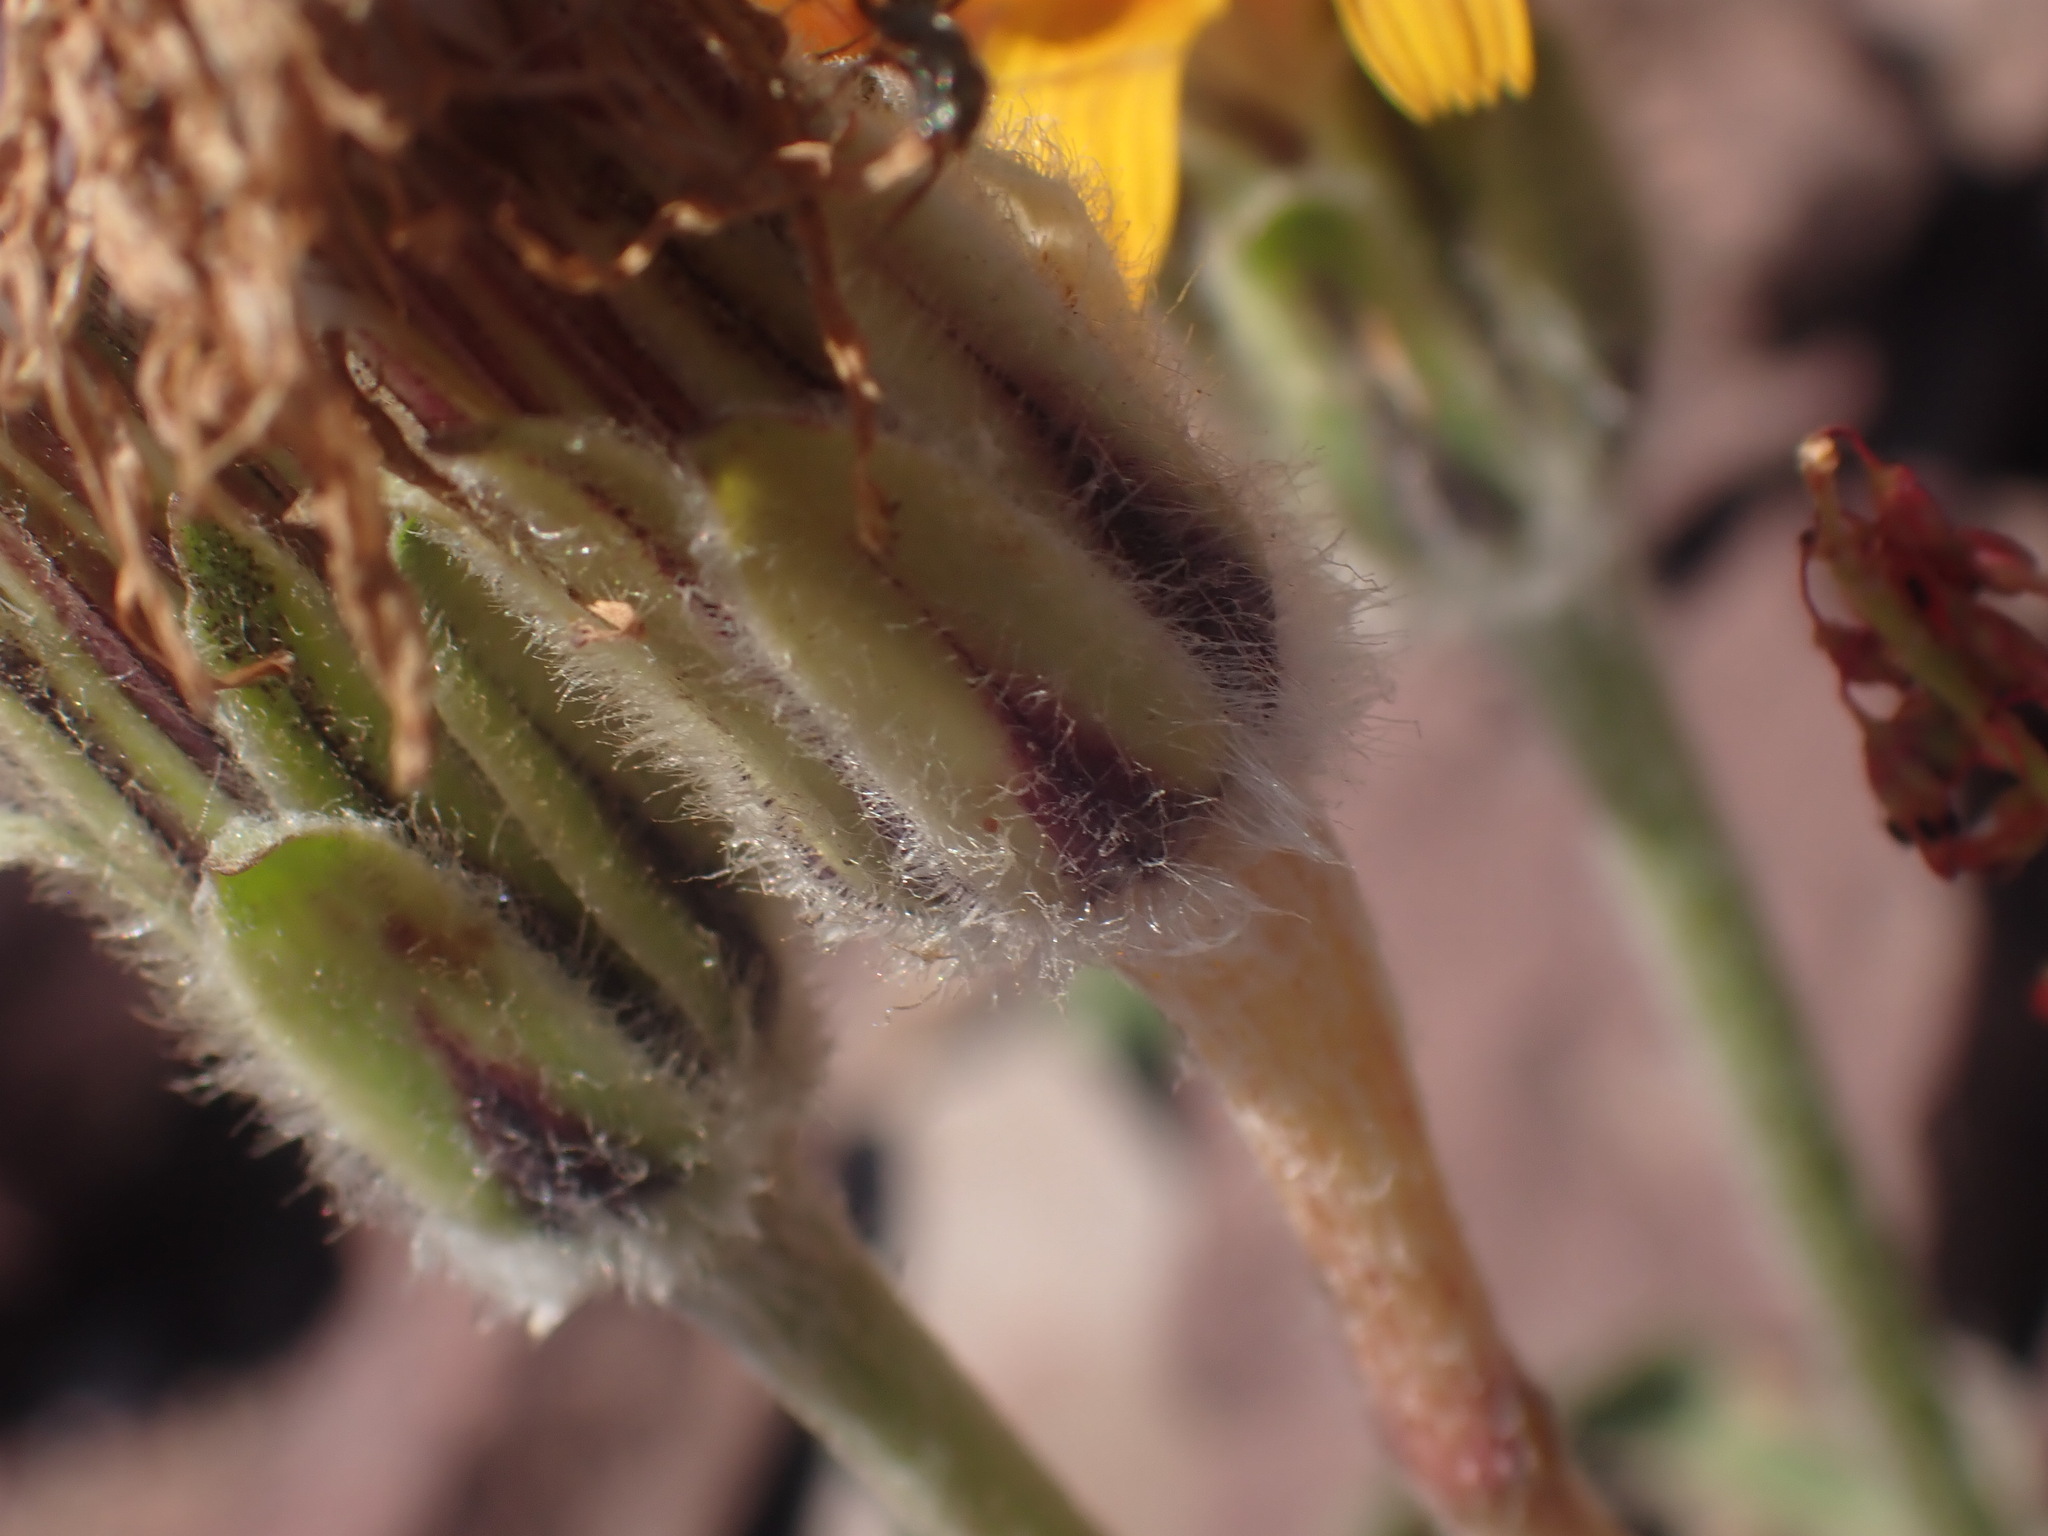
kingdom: Plantae
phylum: Tracheophyta
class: Magnoliopsida
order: Asterales
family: Asteraceae
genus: Agoseris
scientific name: Agoseris aurantiaca
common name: Mountain agoseris
